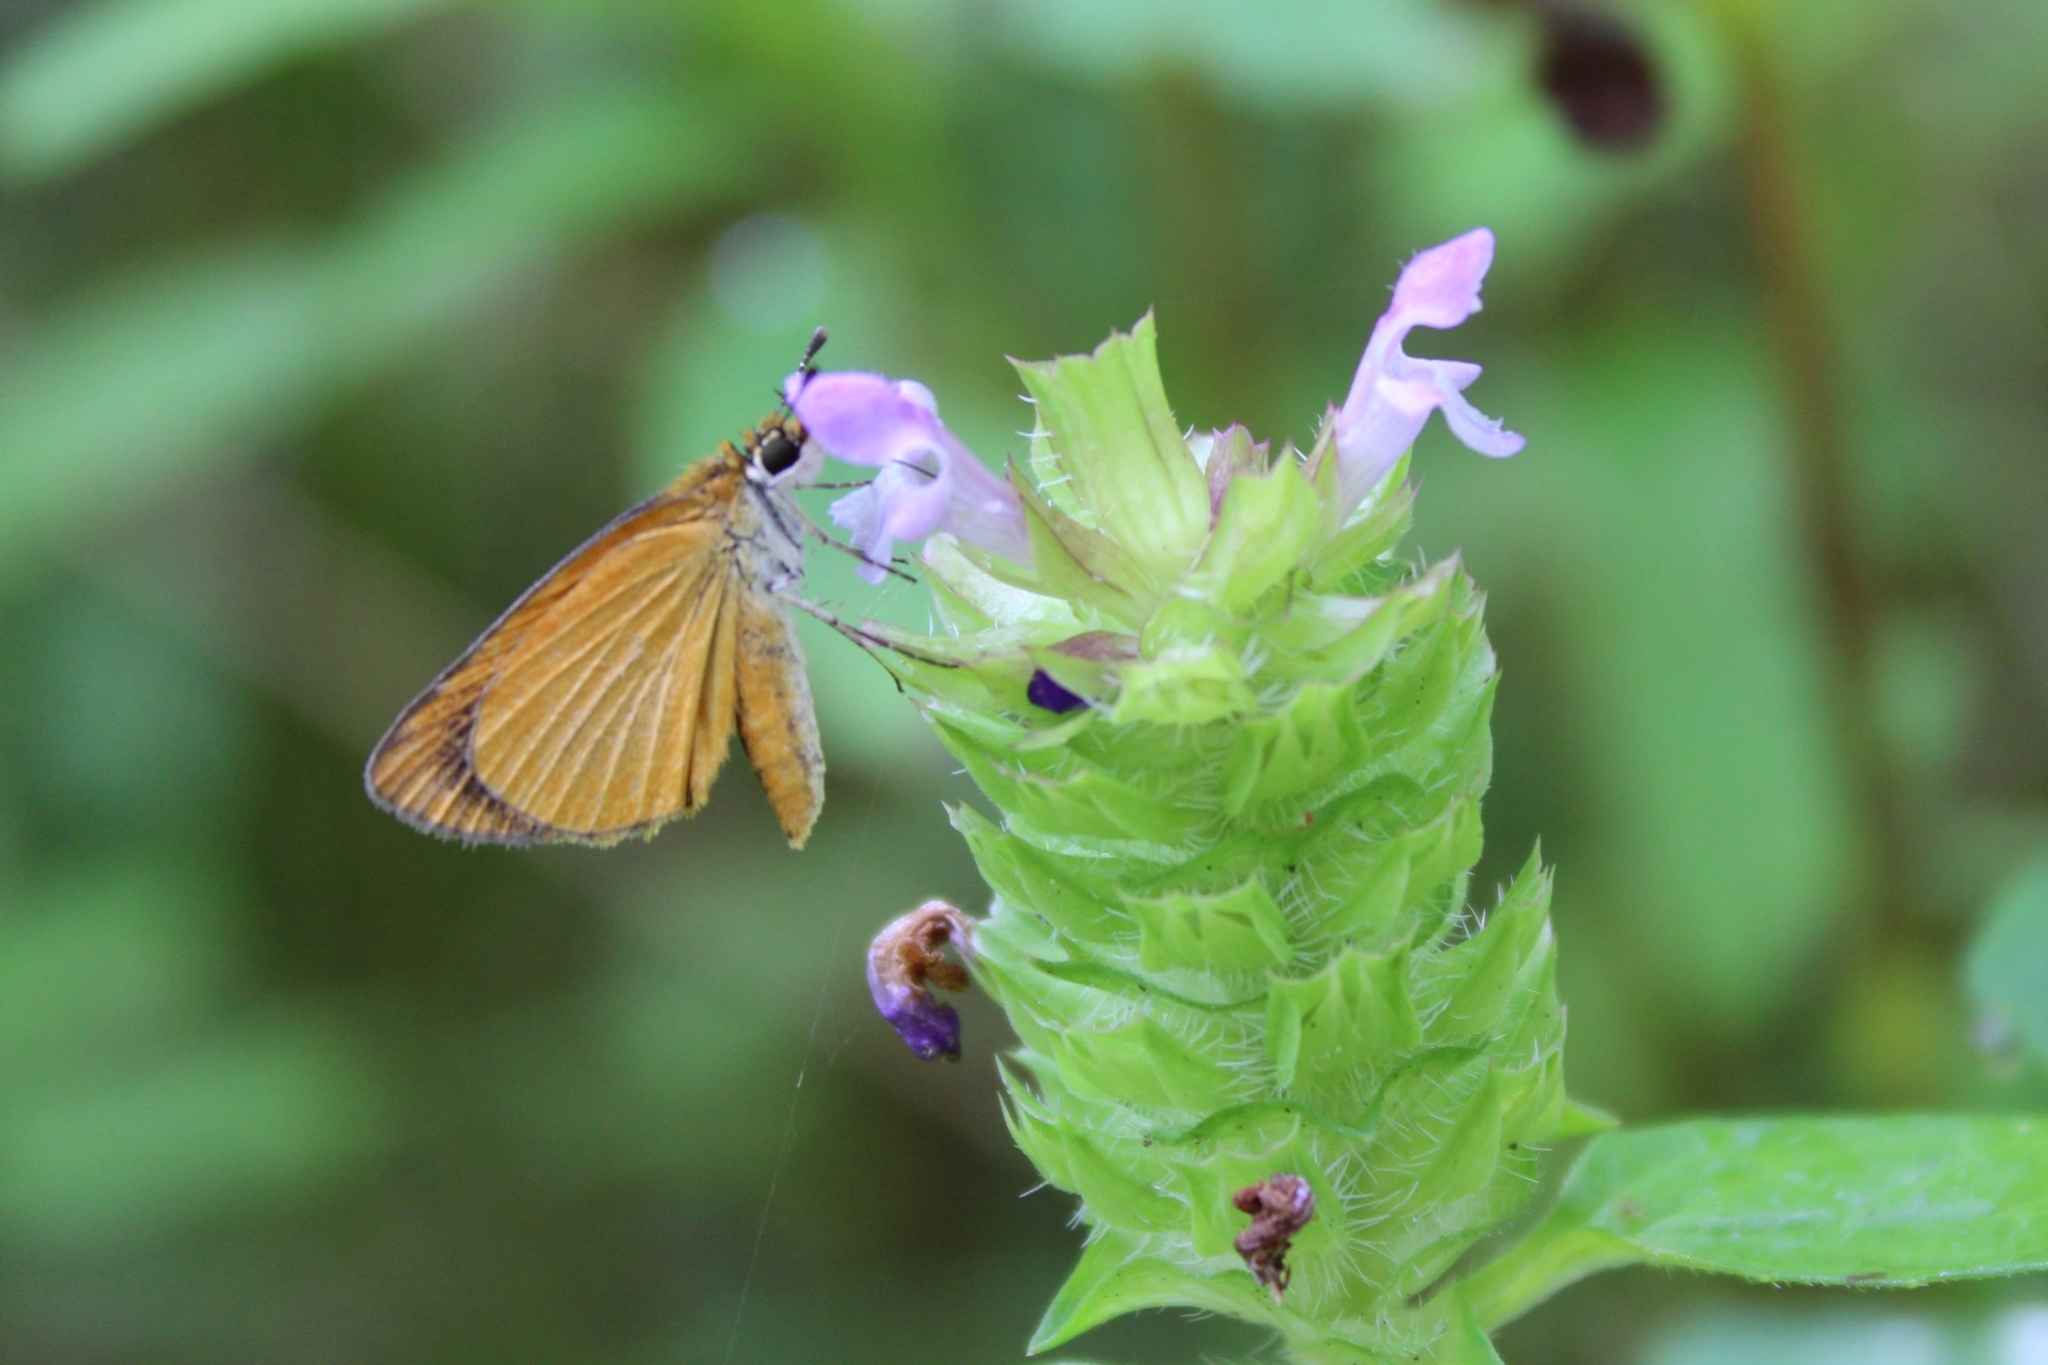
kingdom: Animalia
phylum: Arthropoda
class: Insecta
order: Lepidoptera
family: Hesperiidae
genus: Ancyloxypha
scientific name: Ancyloxypha numitor
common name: Least skipper
